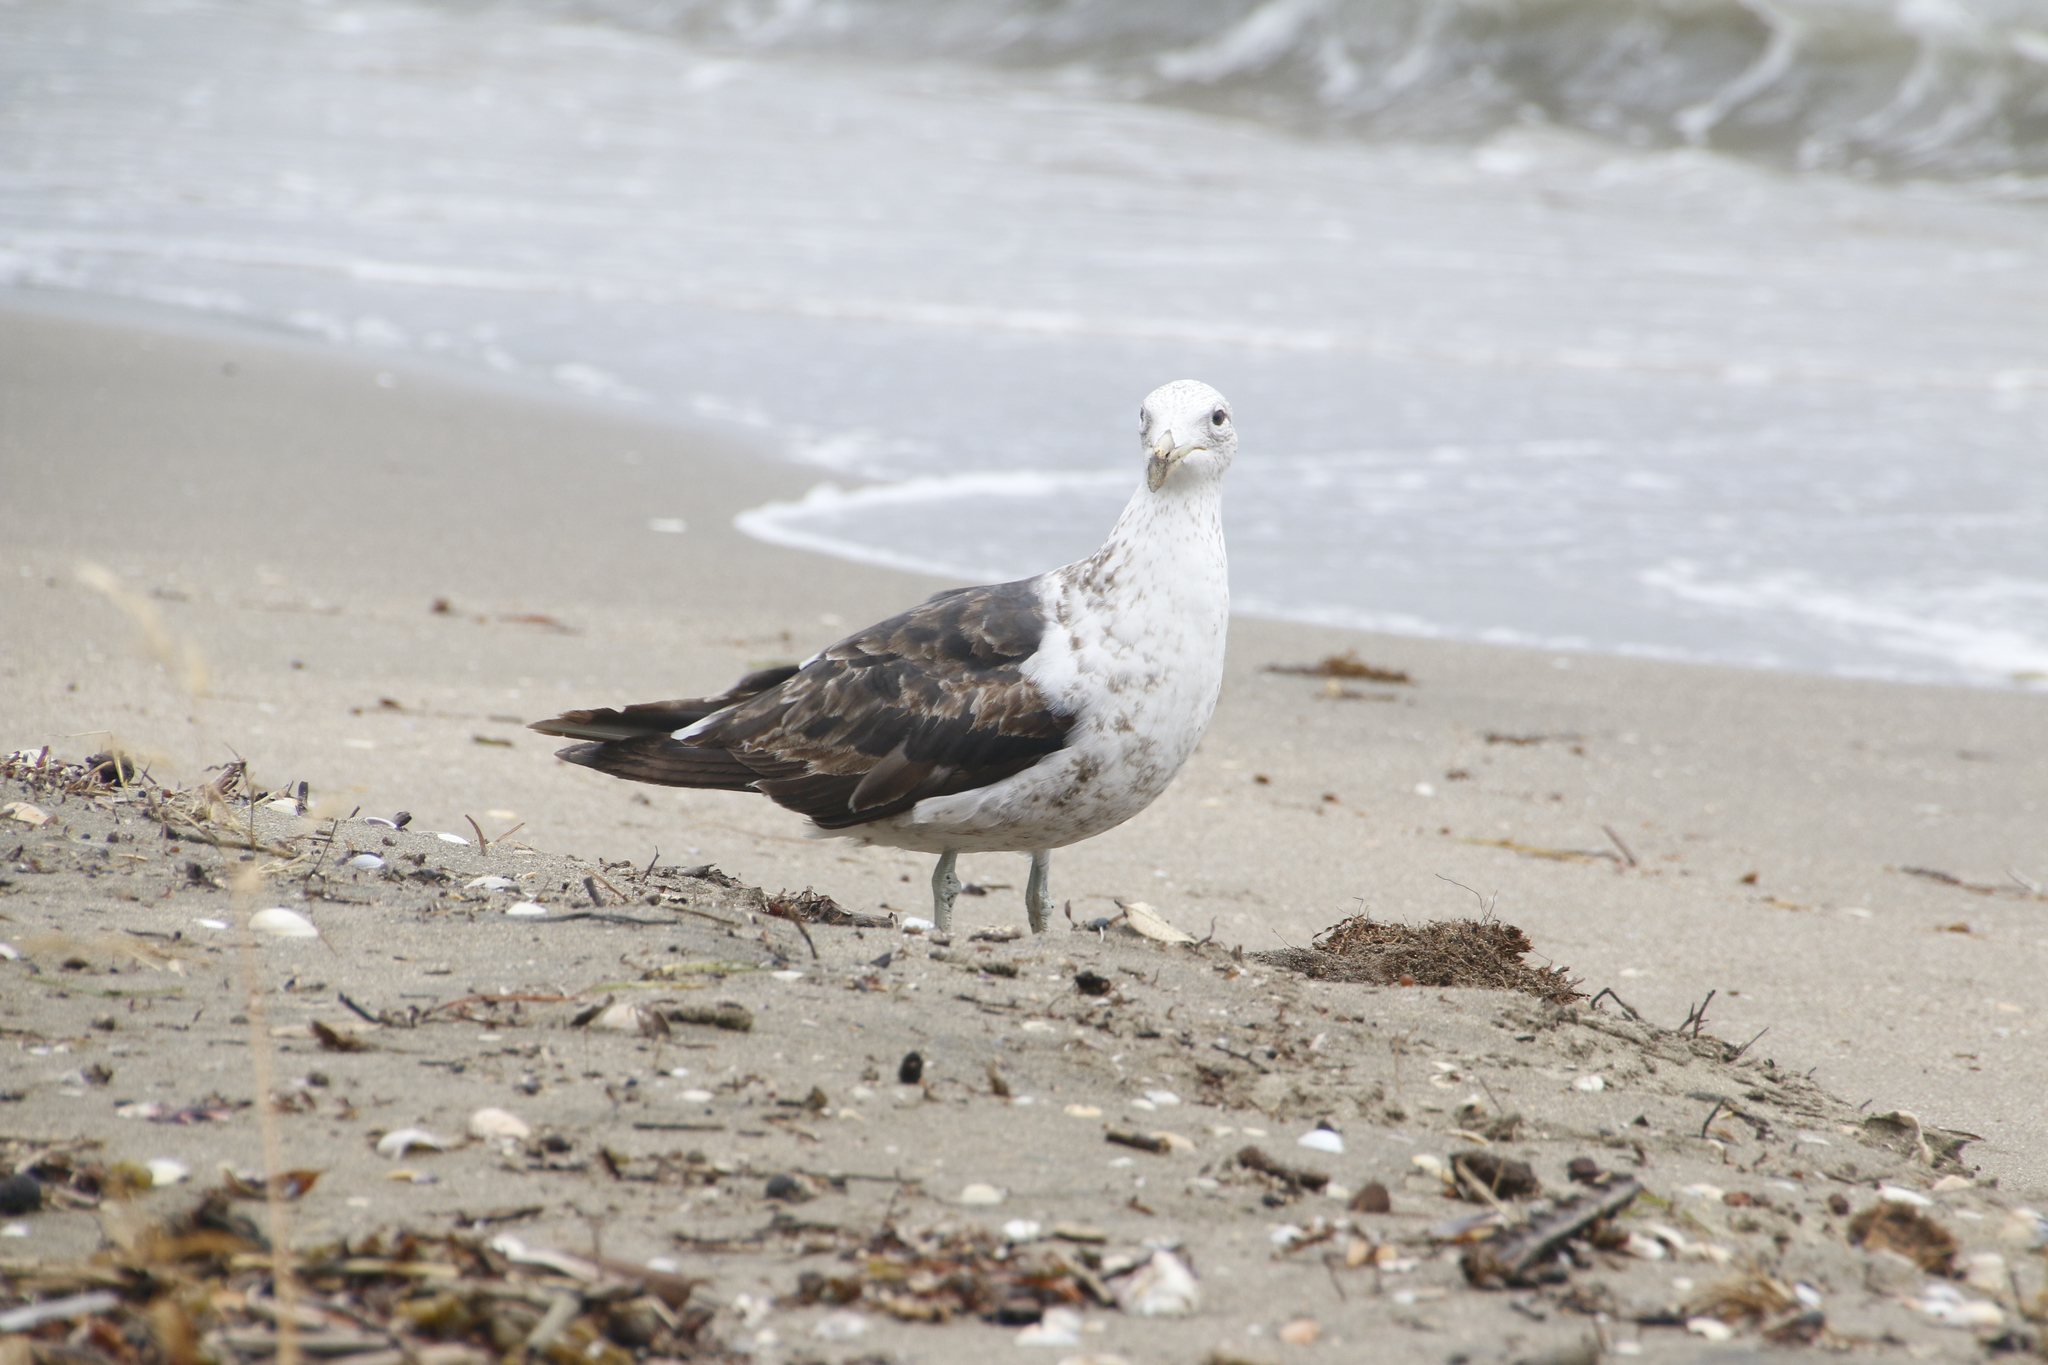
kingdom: Animalia
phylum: Chordata
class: Aves
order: Charadriiformes
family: Laridae
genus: Larus
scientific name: Larus dominicanus
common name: Kelp gull
